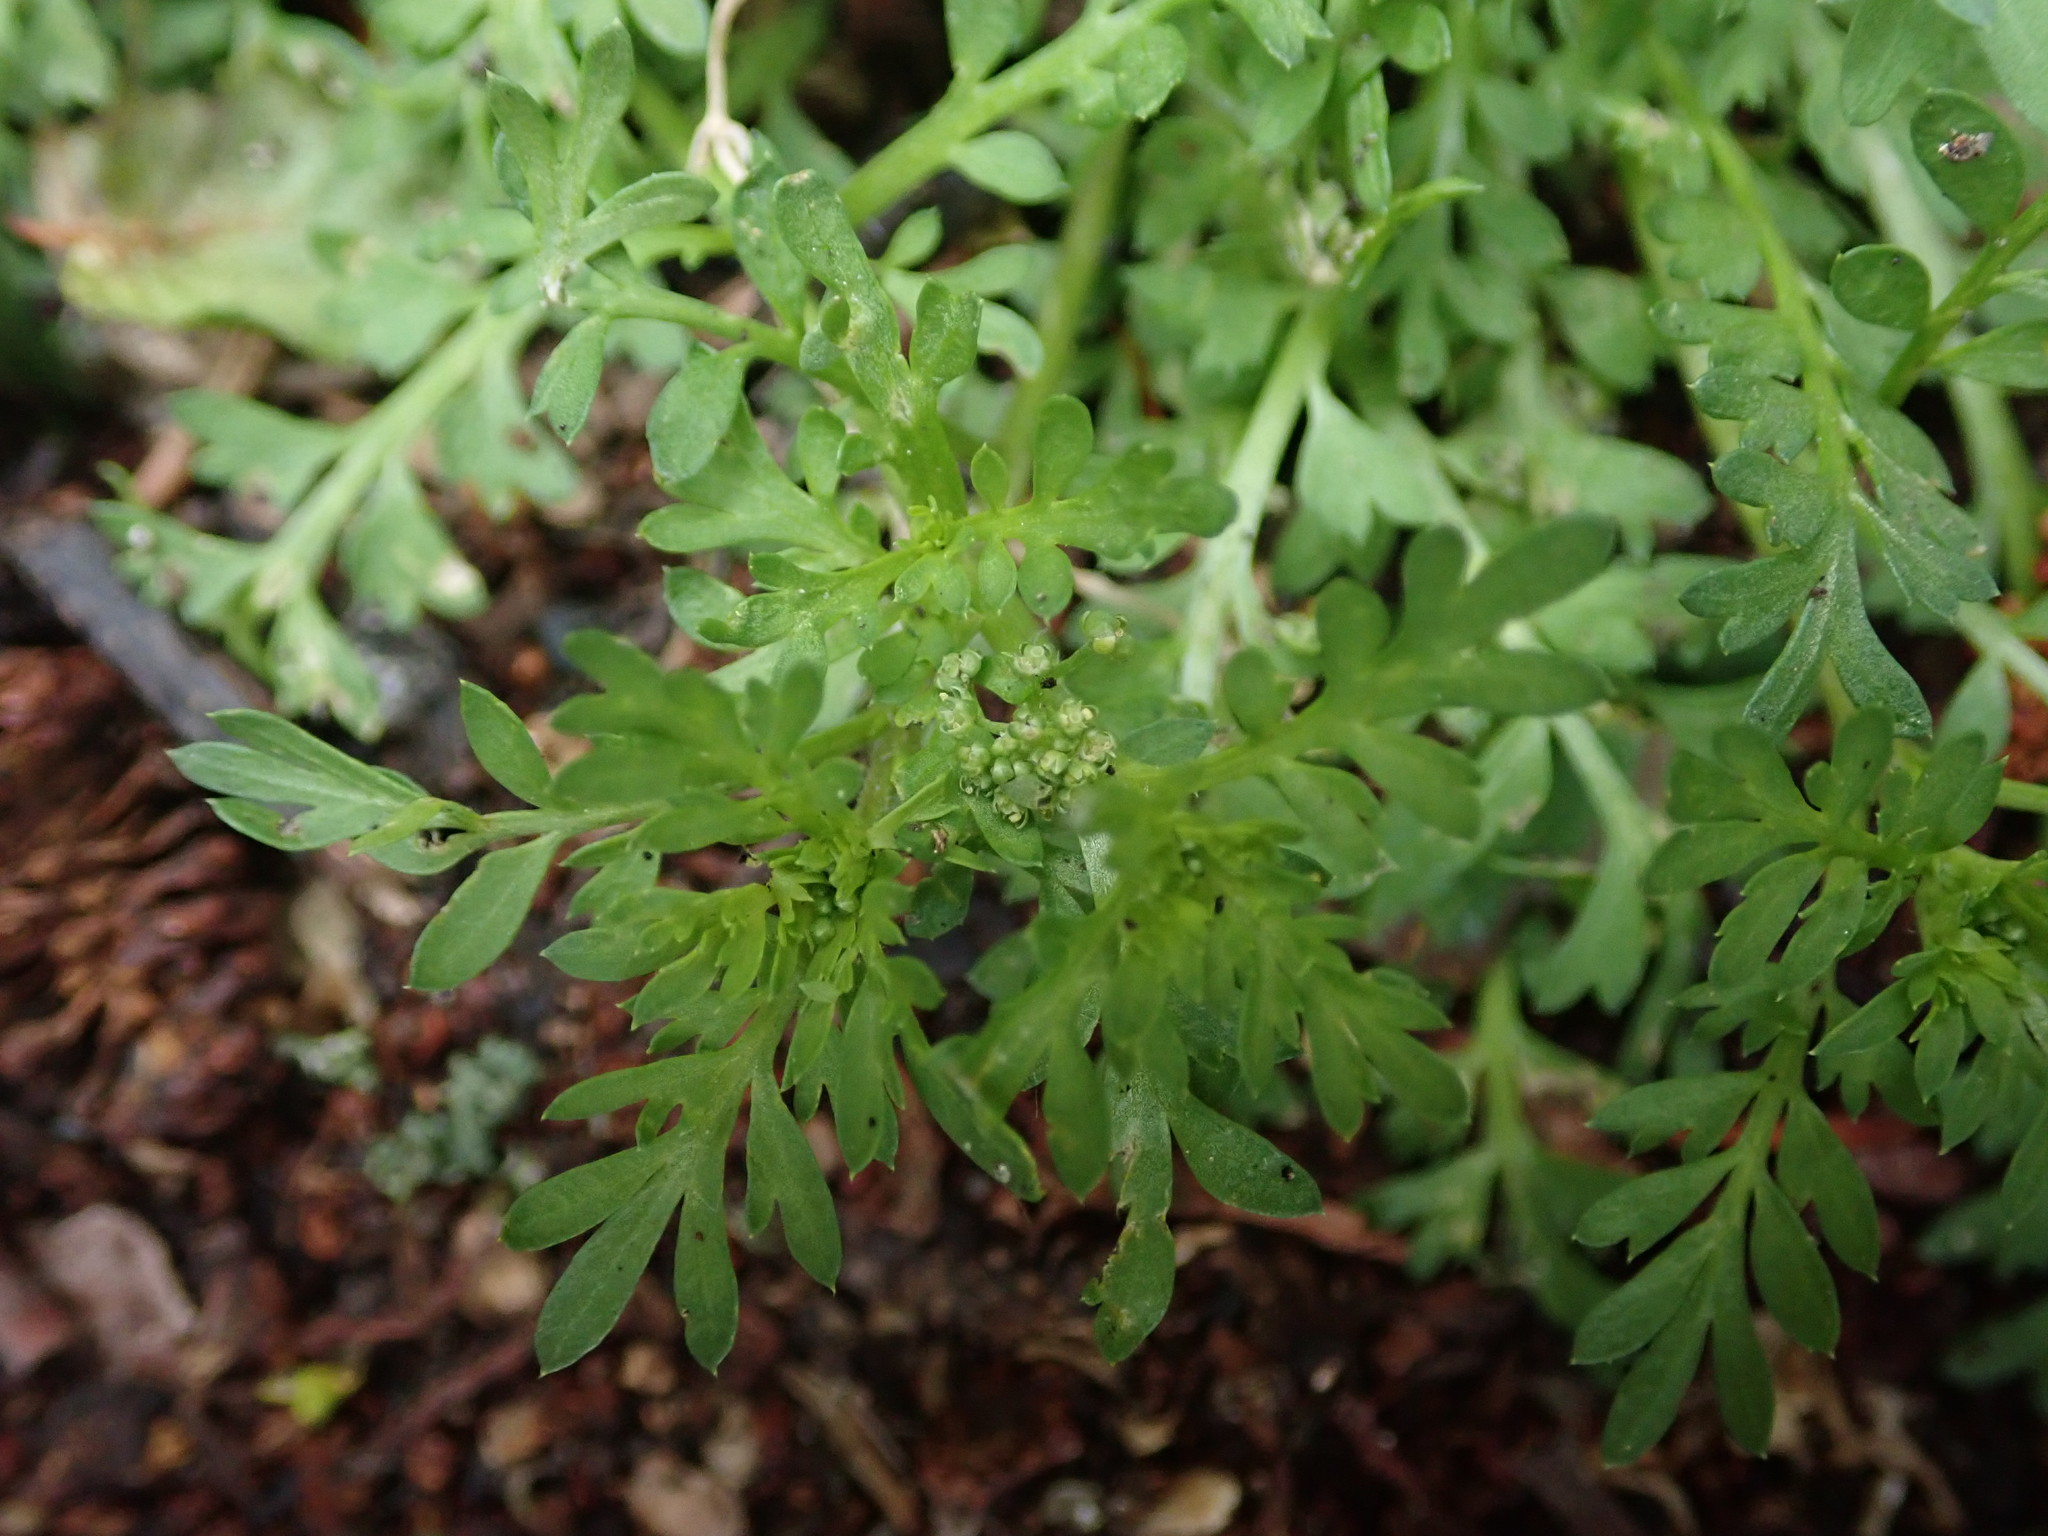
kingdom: Plantae
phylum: Tracheophyta
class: Magnoliopsida
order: Brassicales
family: Brassicaceae
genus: Lepidium
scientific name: Lepidium didymum
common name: Lesser swinecress
